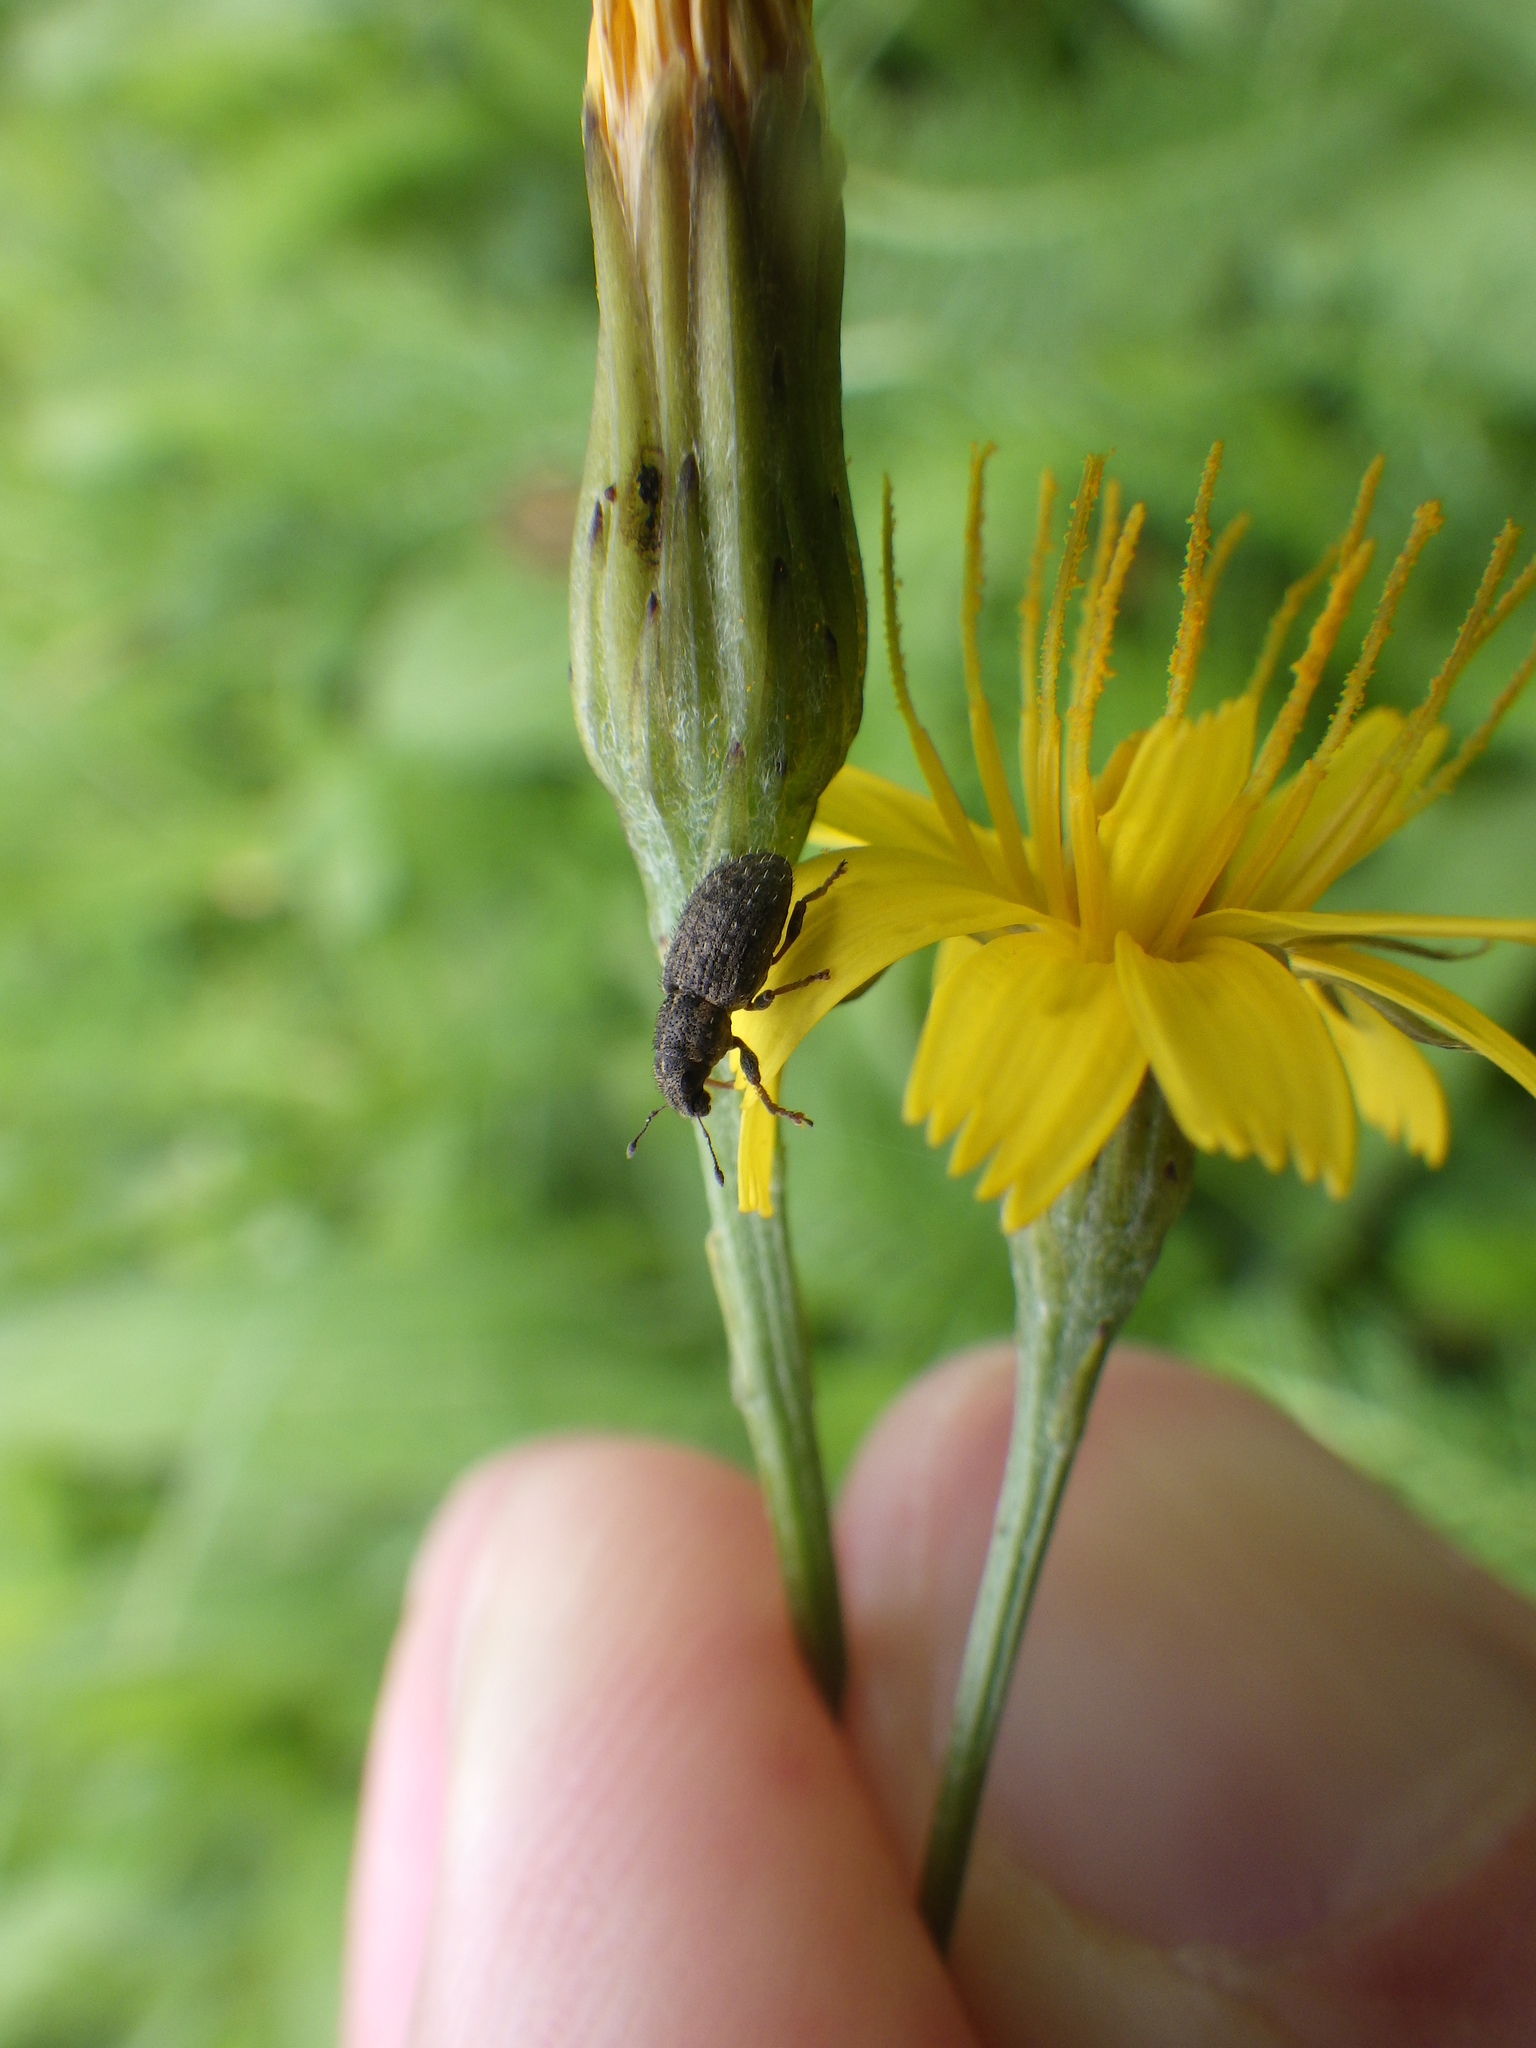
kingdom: Animalia
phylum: Arthropoda
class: Insecta
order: Coleoptera
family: Curculionidae
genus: Sitona
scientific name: Sitona hispidulus
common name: Clover weevil
